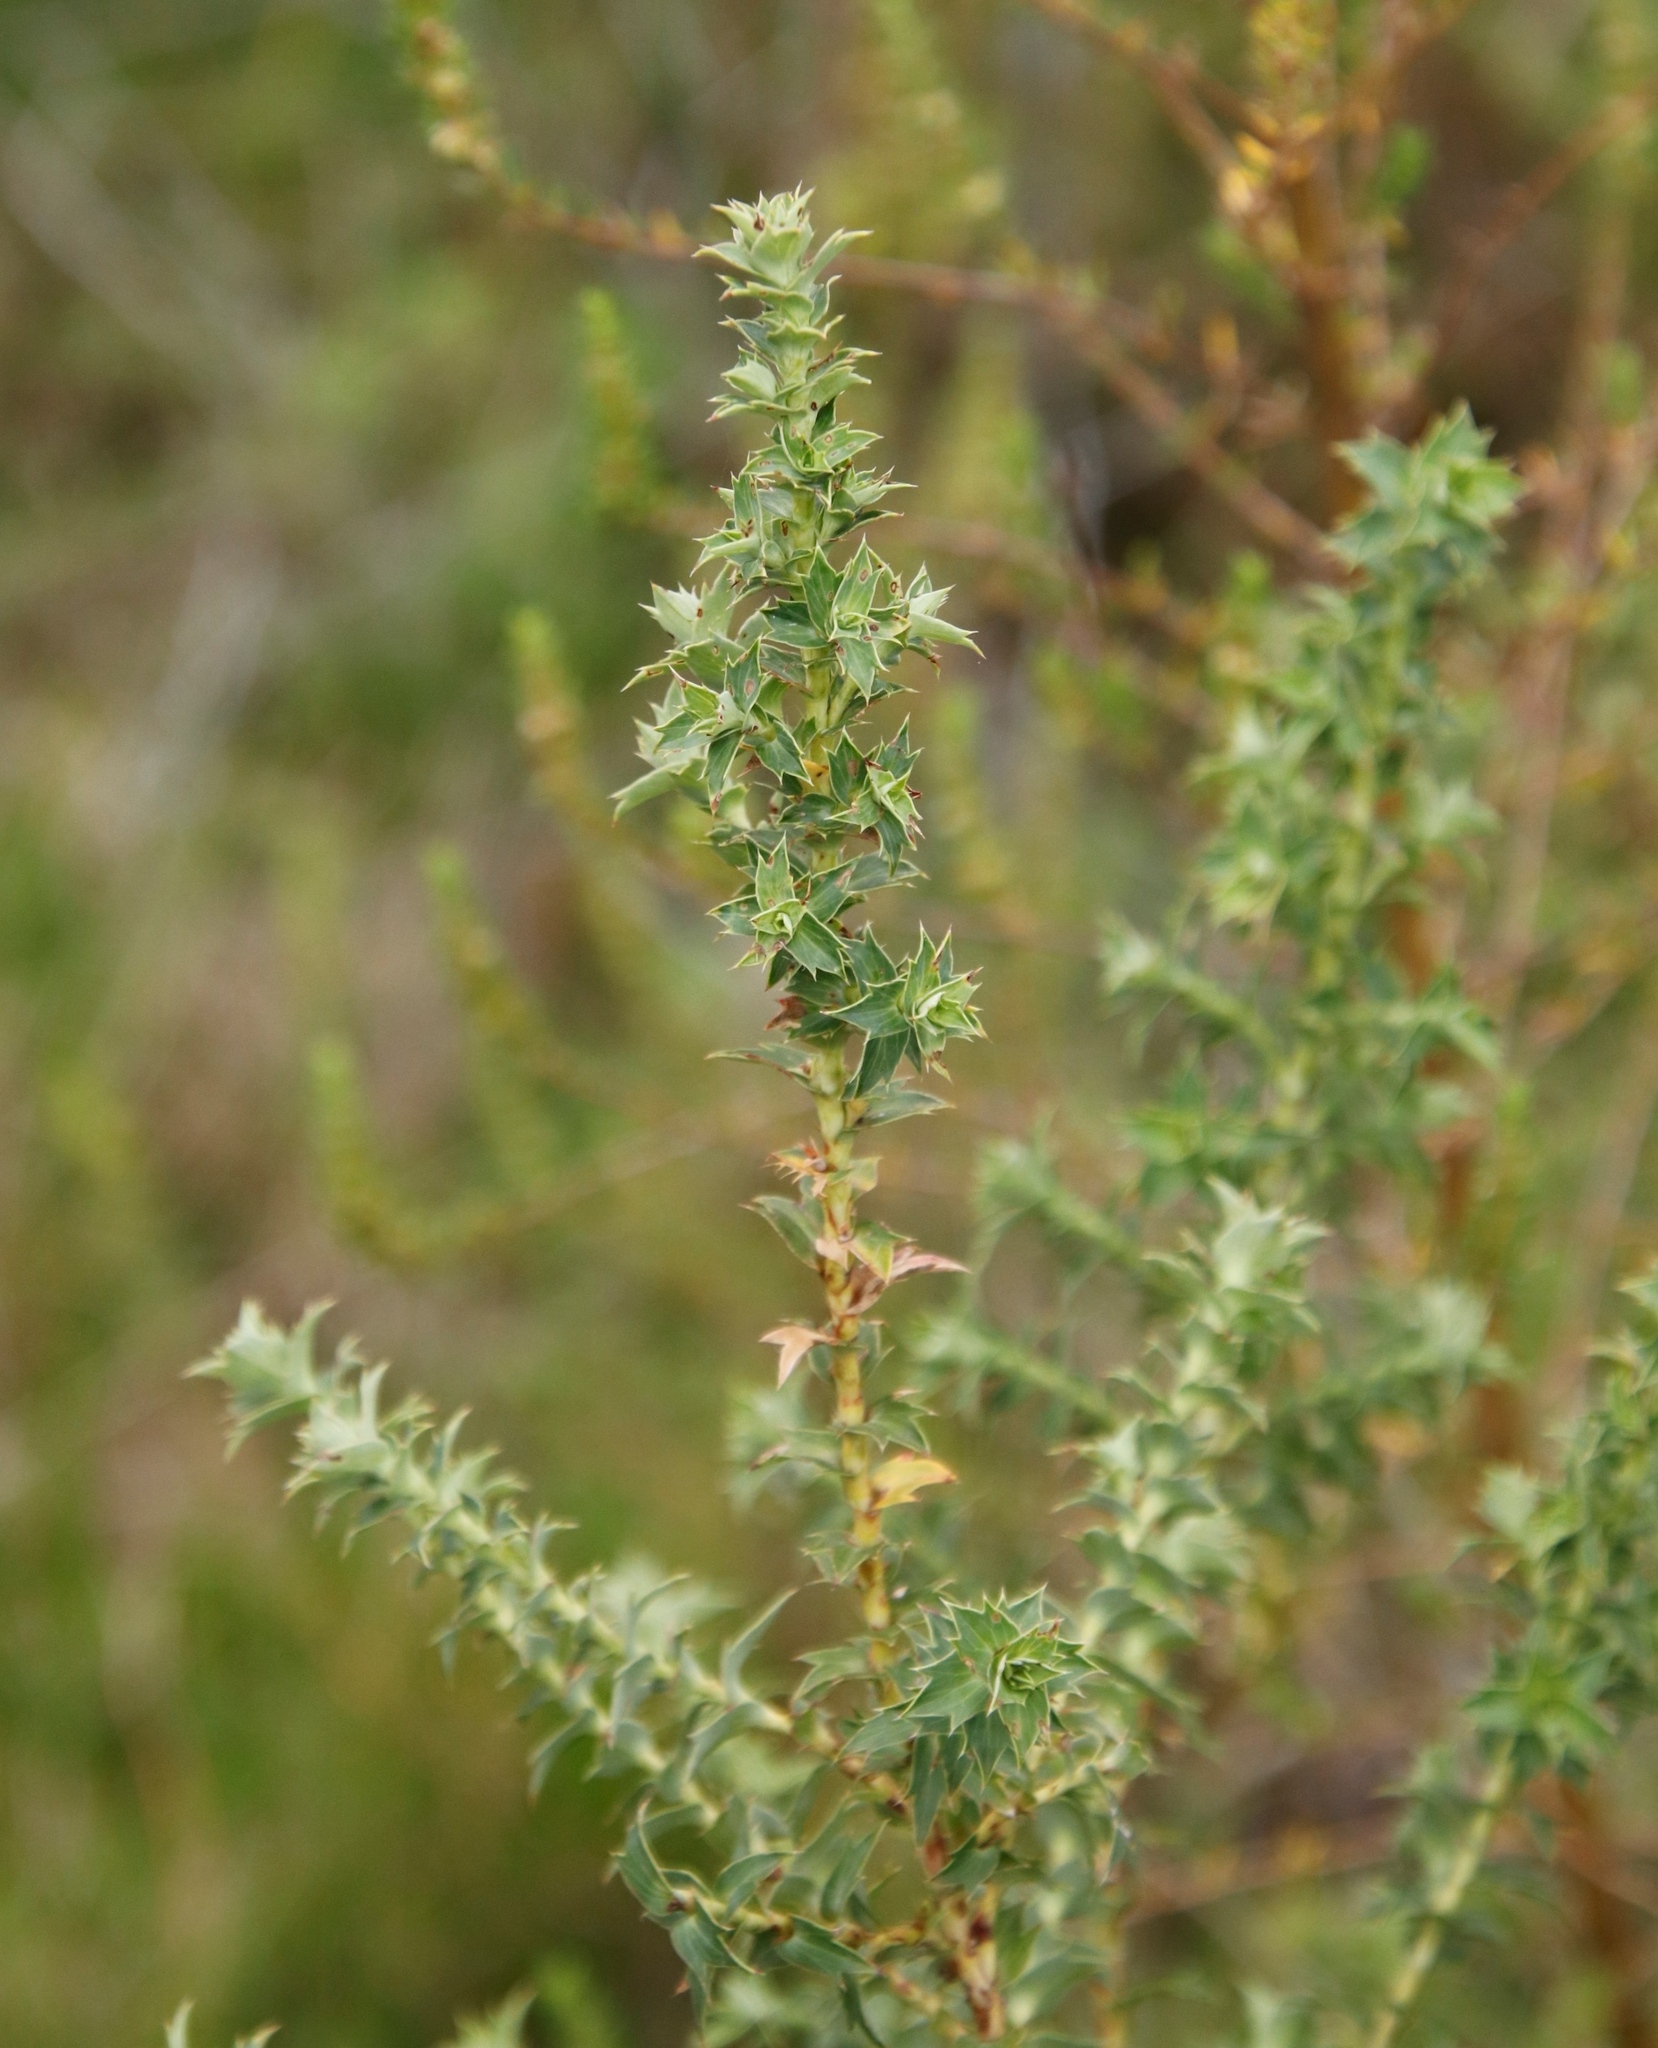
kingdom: Plantae
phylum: Tracheophyta
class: Magnoliopsida
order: Rosales
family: Rosaceae
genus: Cliffortia
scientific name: Cliffortia ilicifolia
